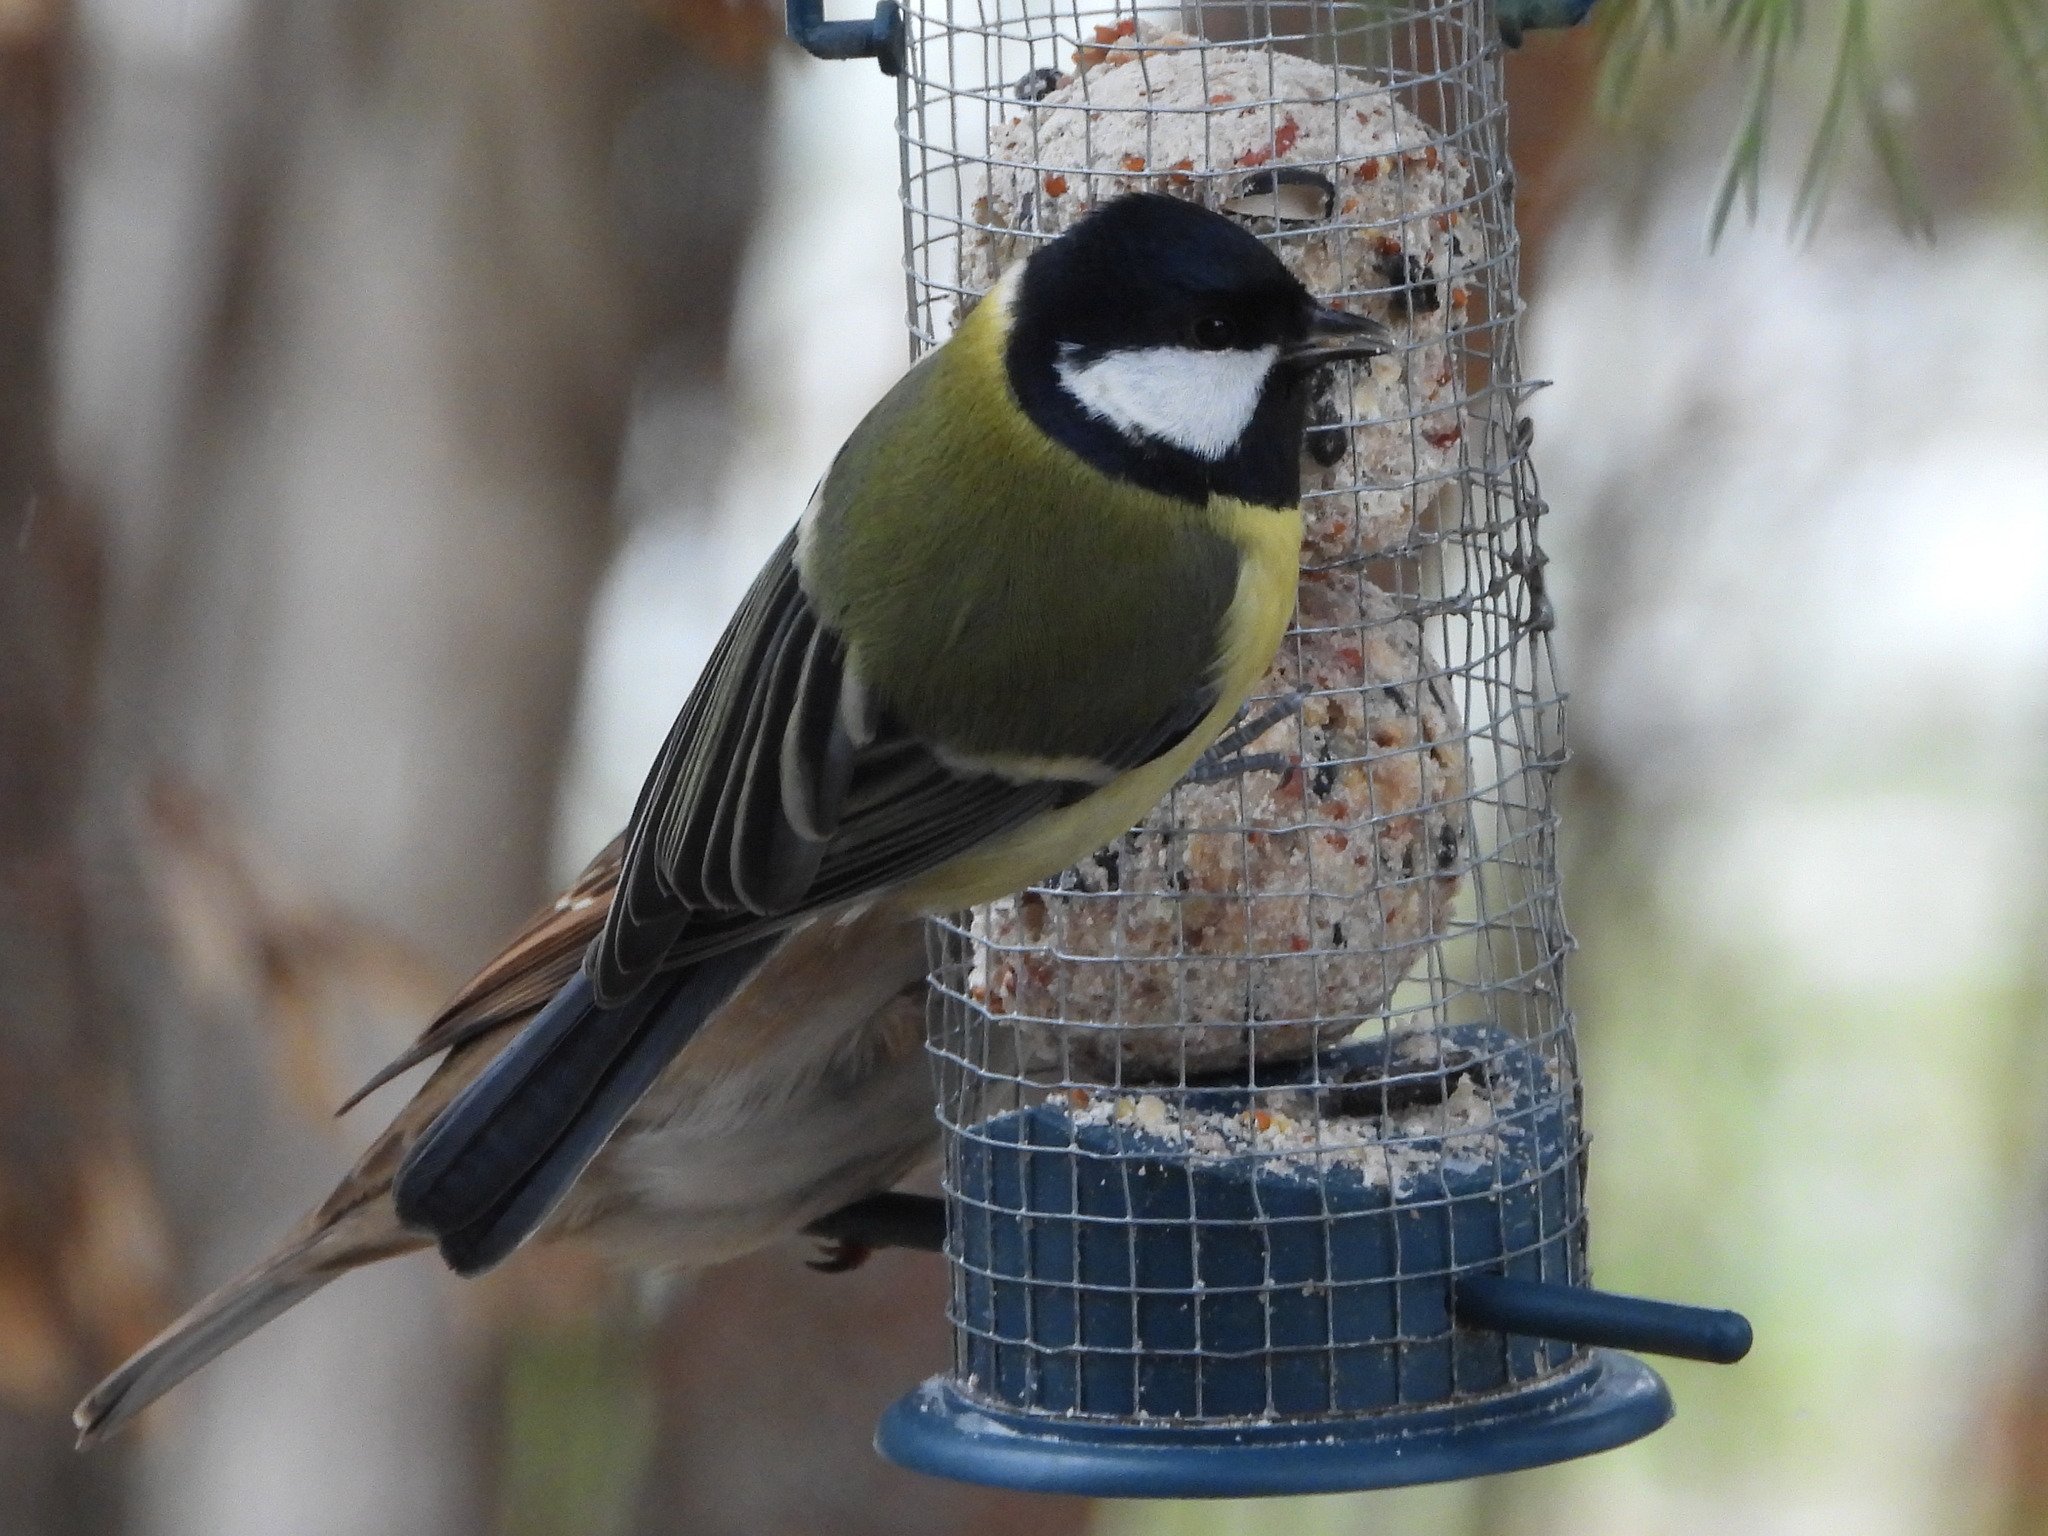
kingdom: Animalia
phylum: Chordata
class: Aves
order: Passeriformes
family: Paridae
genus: Parus
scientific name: Parus major
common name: Great tit
